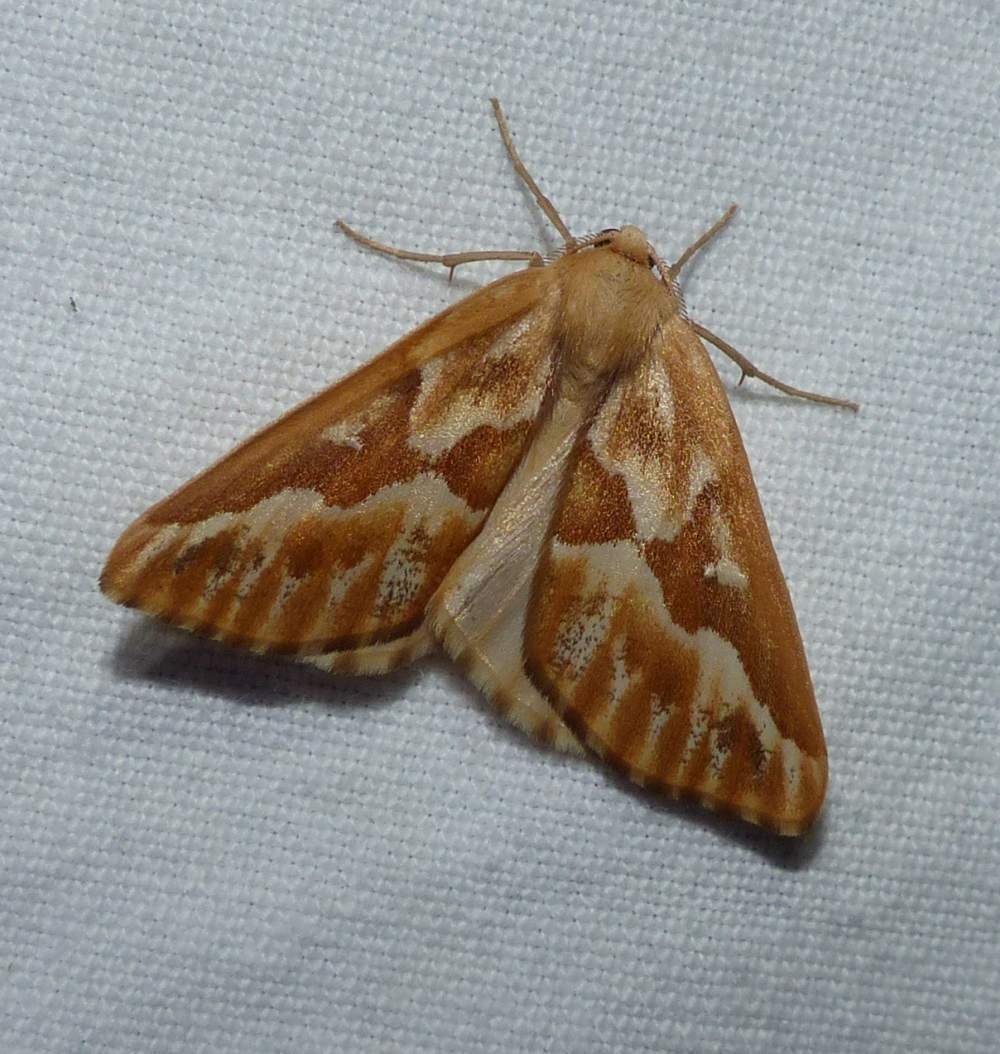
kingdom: Animalia
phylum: Arthropoda
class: Insecta
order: Lepidoptera
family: Geometridae
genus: Caripeta
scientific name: Caripeta piniata
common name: Northern pine looper moth
